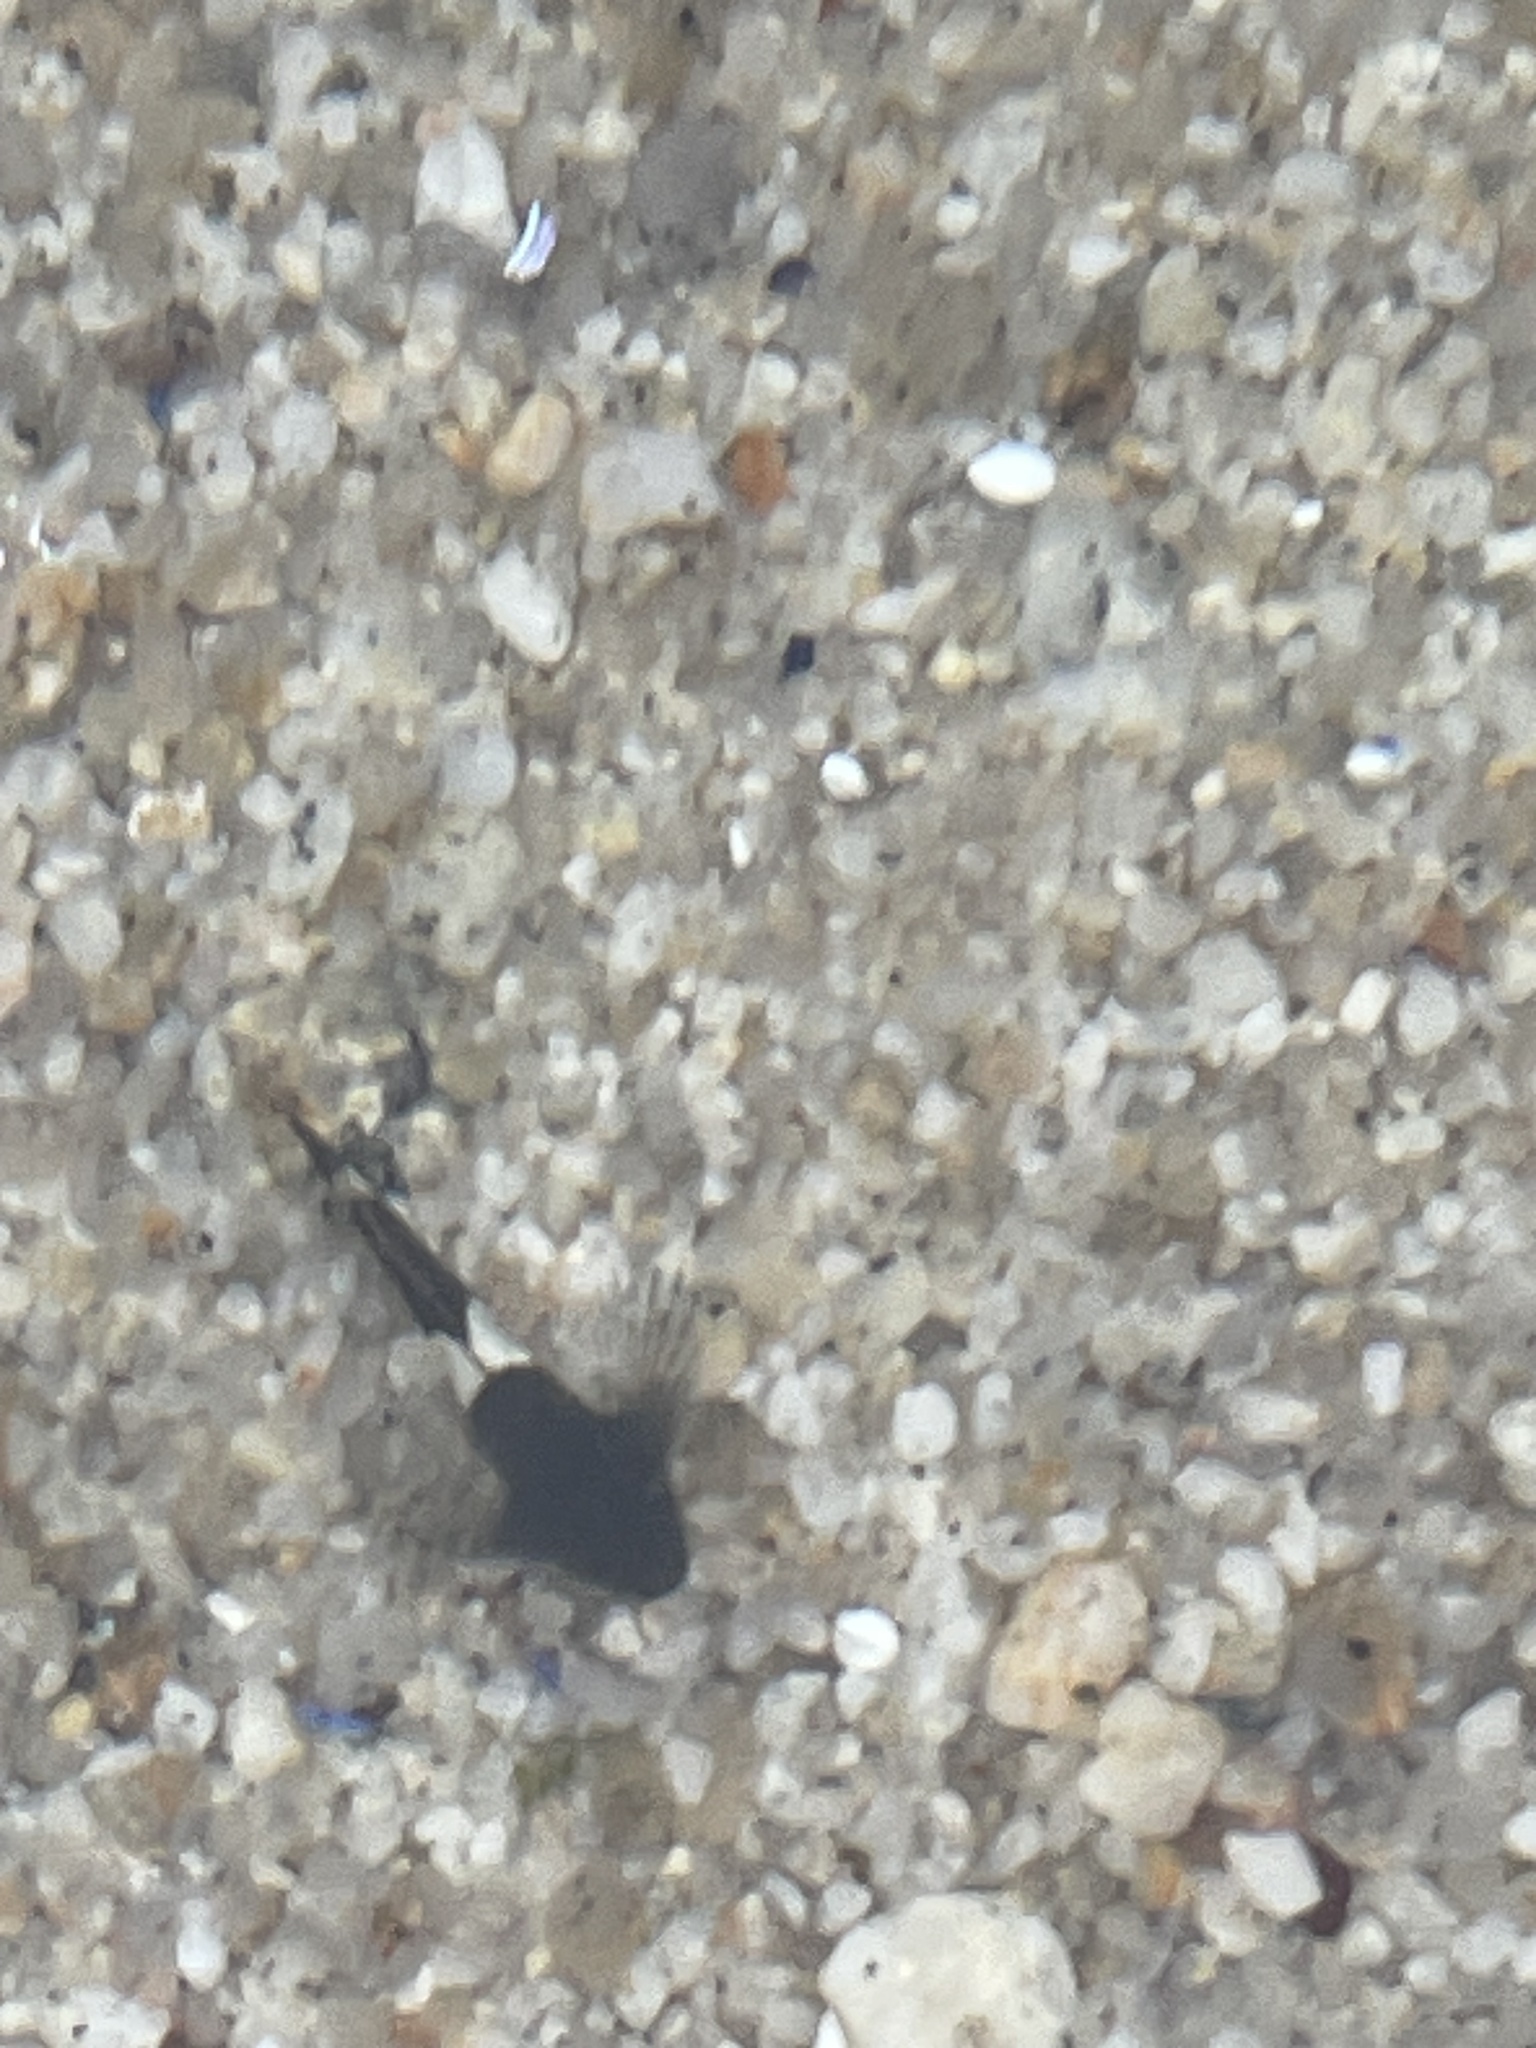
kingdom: Animalia
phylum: Chordata
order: Scorpaeniformes
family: Cottidae
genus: Clinocottus
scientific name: Clinocottus globiceps
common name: Mosshead sculpin
